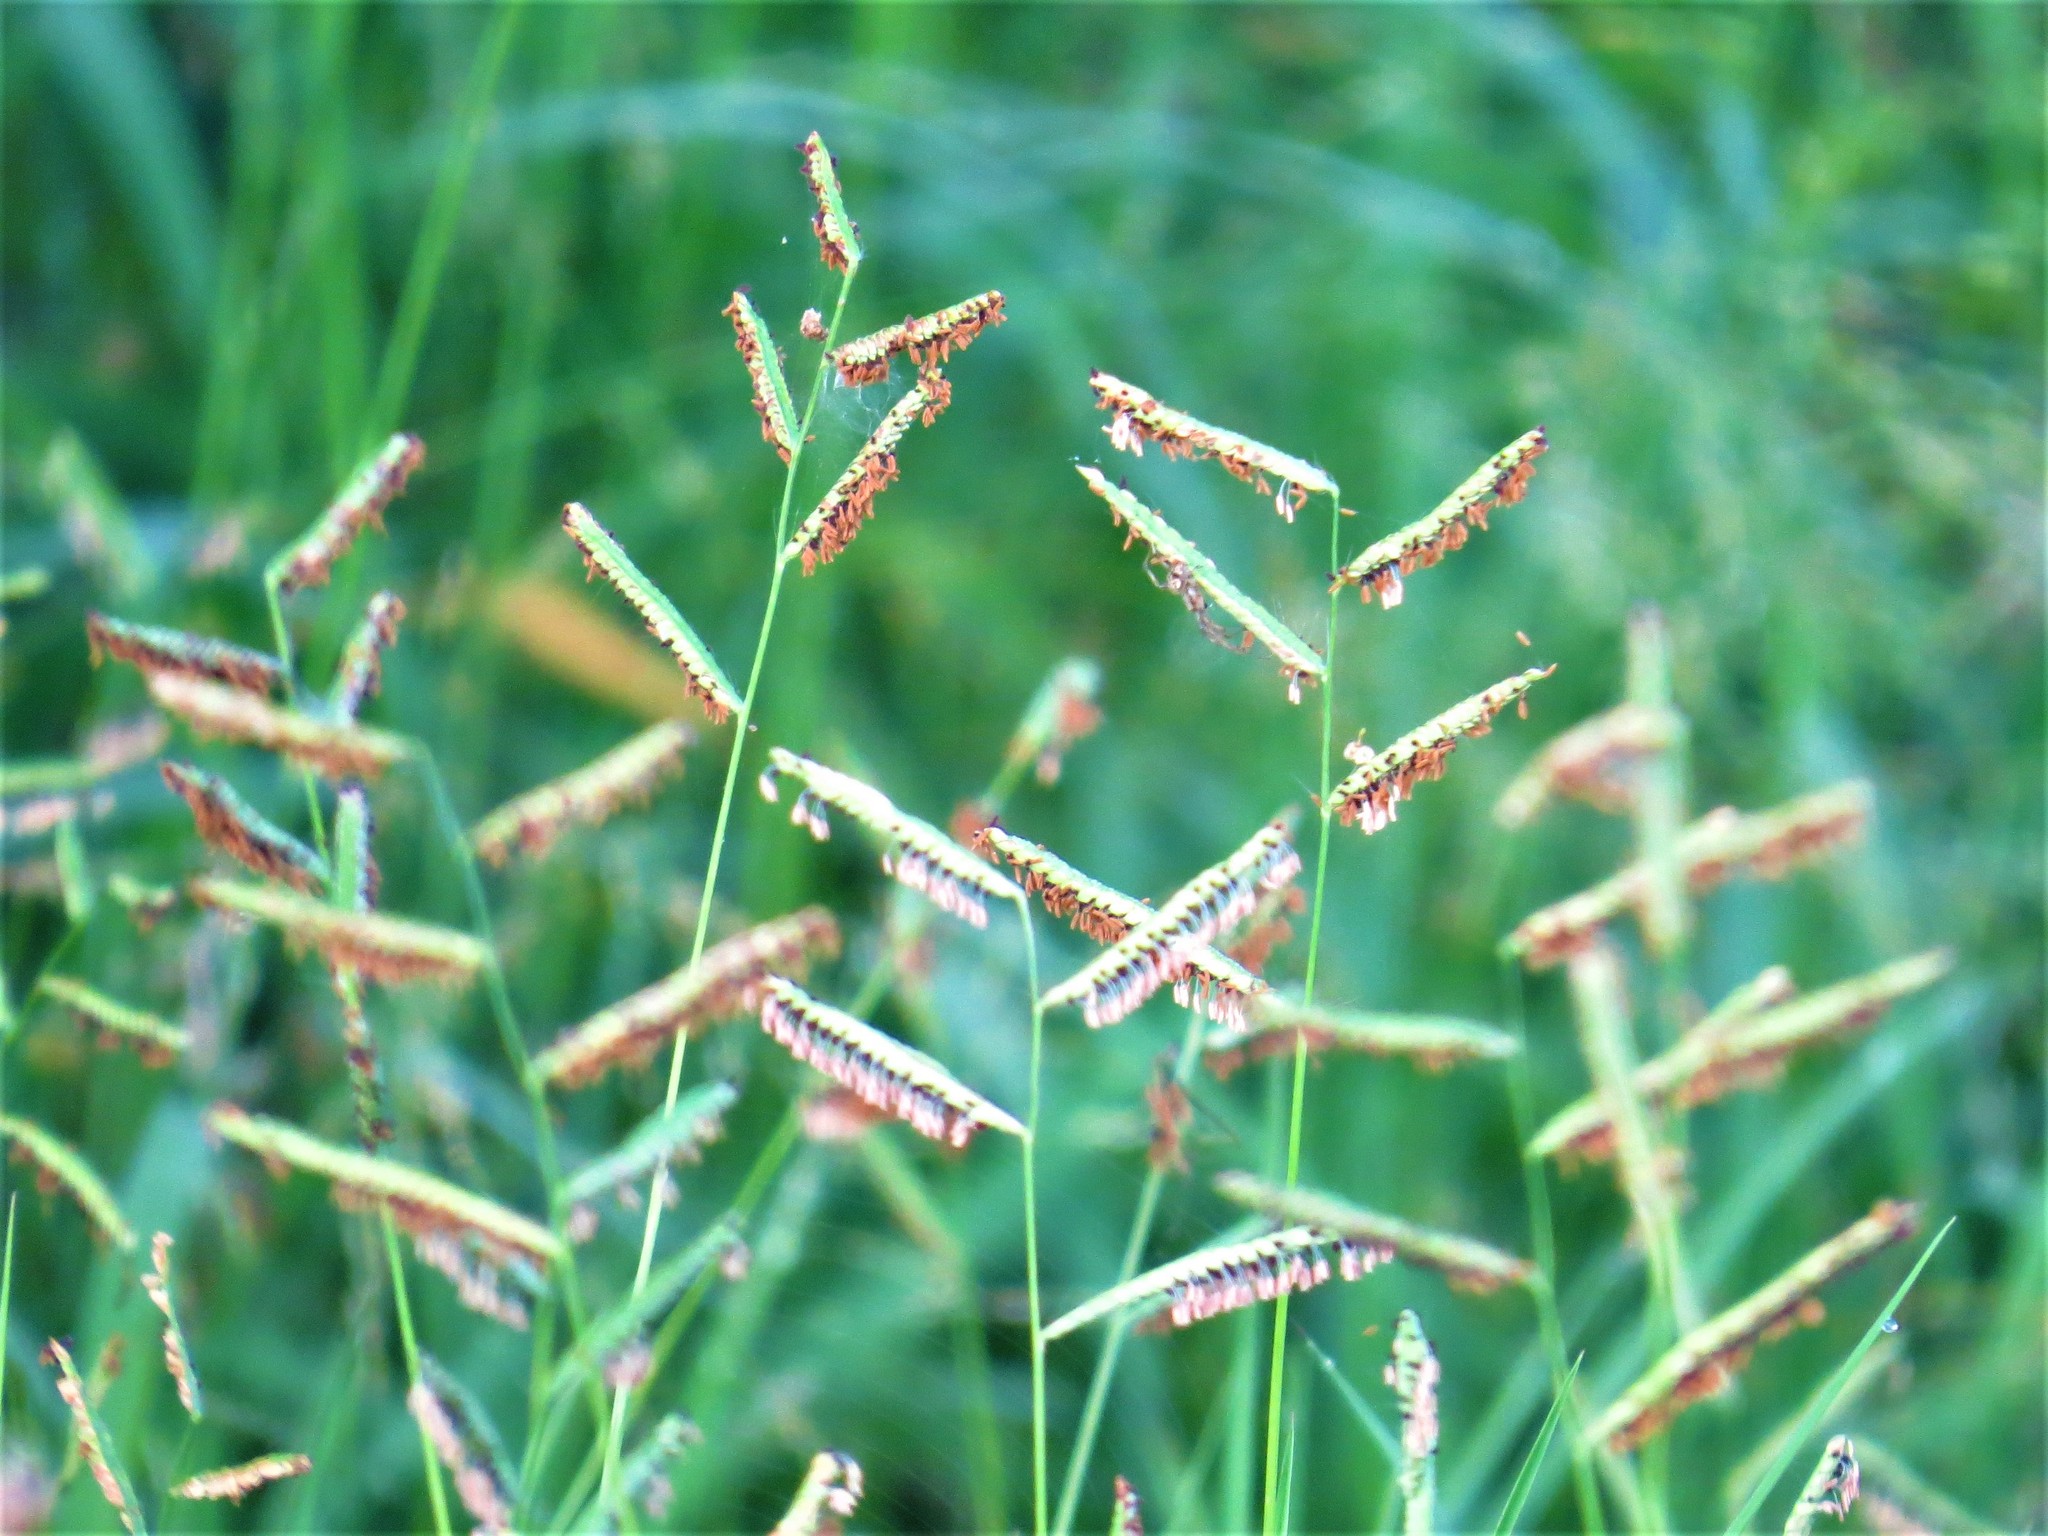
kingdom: Plantae
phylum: Tracheophyta
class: Liliopsida
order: Poales
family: Poaceae
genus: Bouteloua
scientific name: Bouteloua barbata
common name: Six-weeks grama
